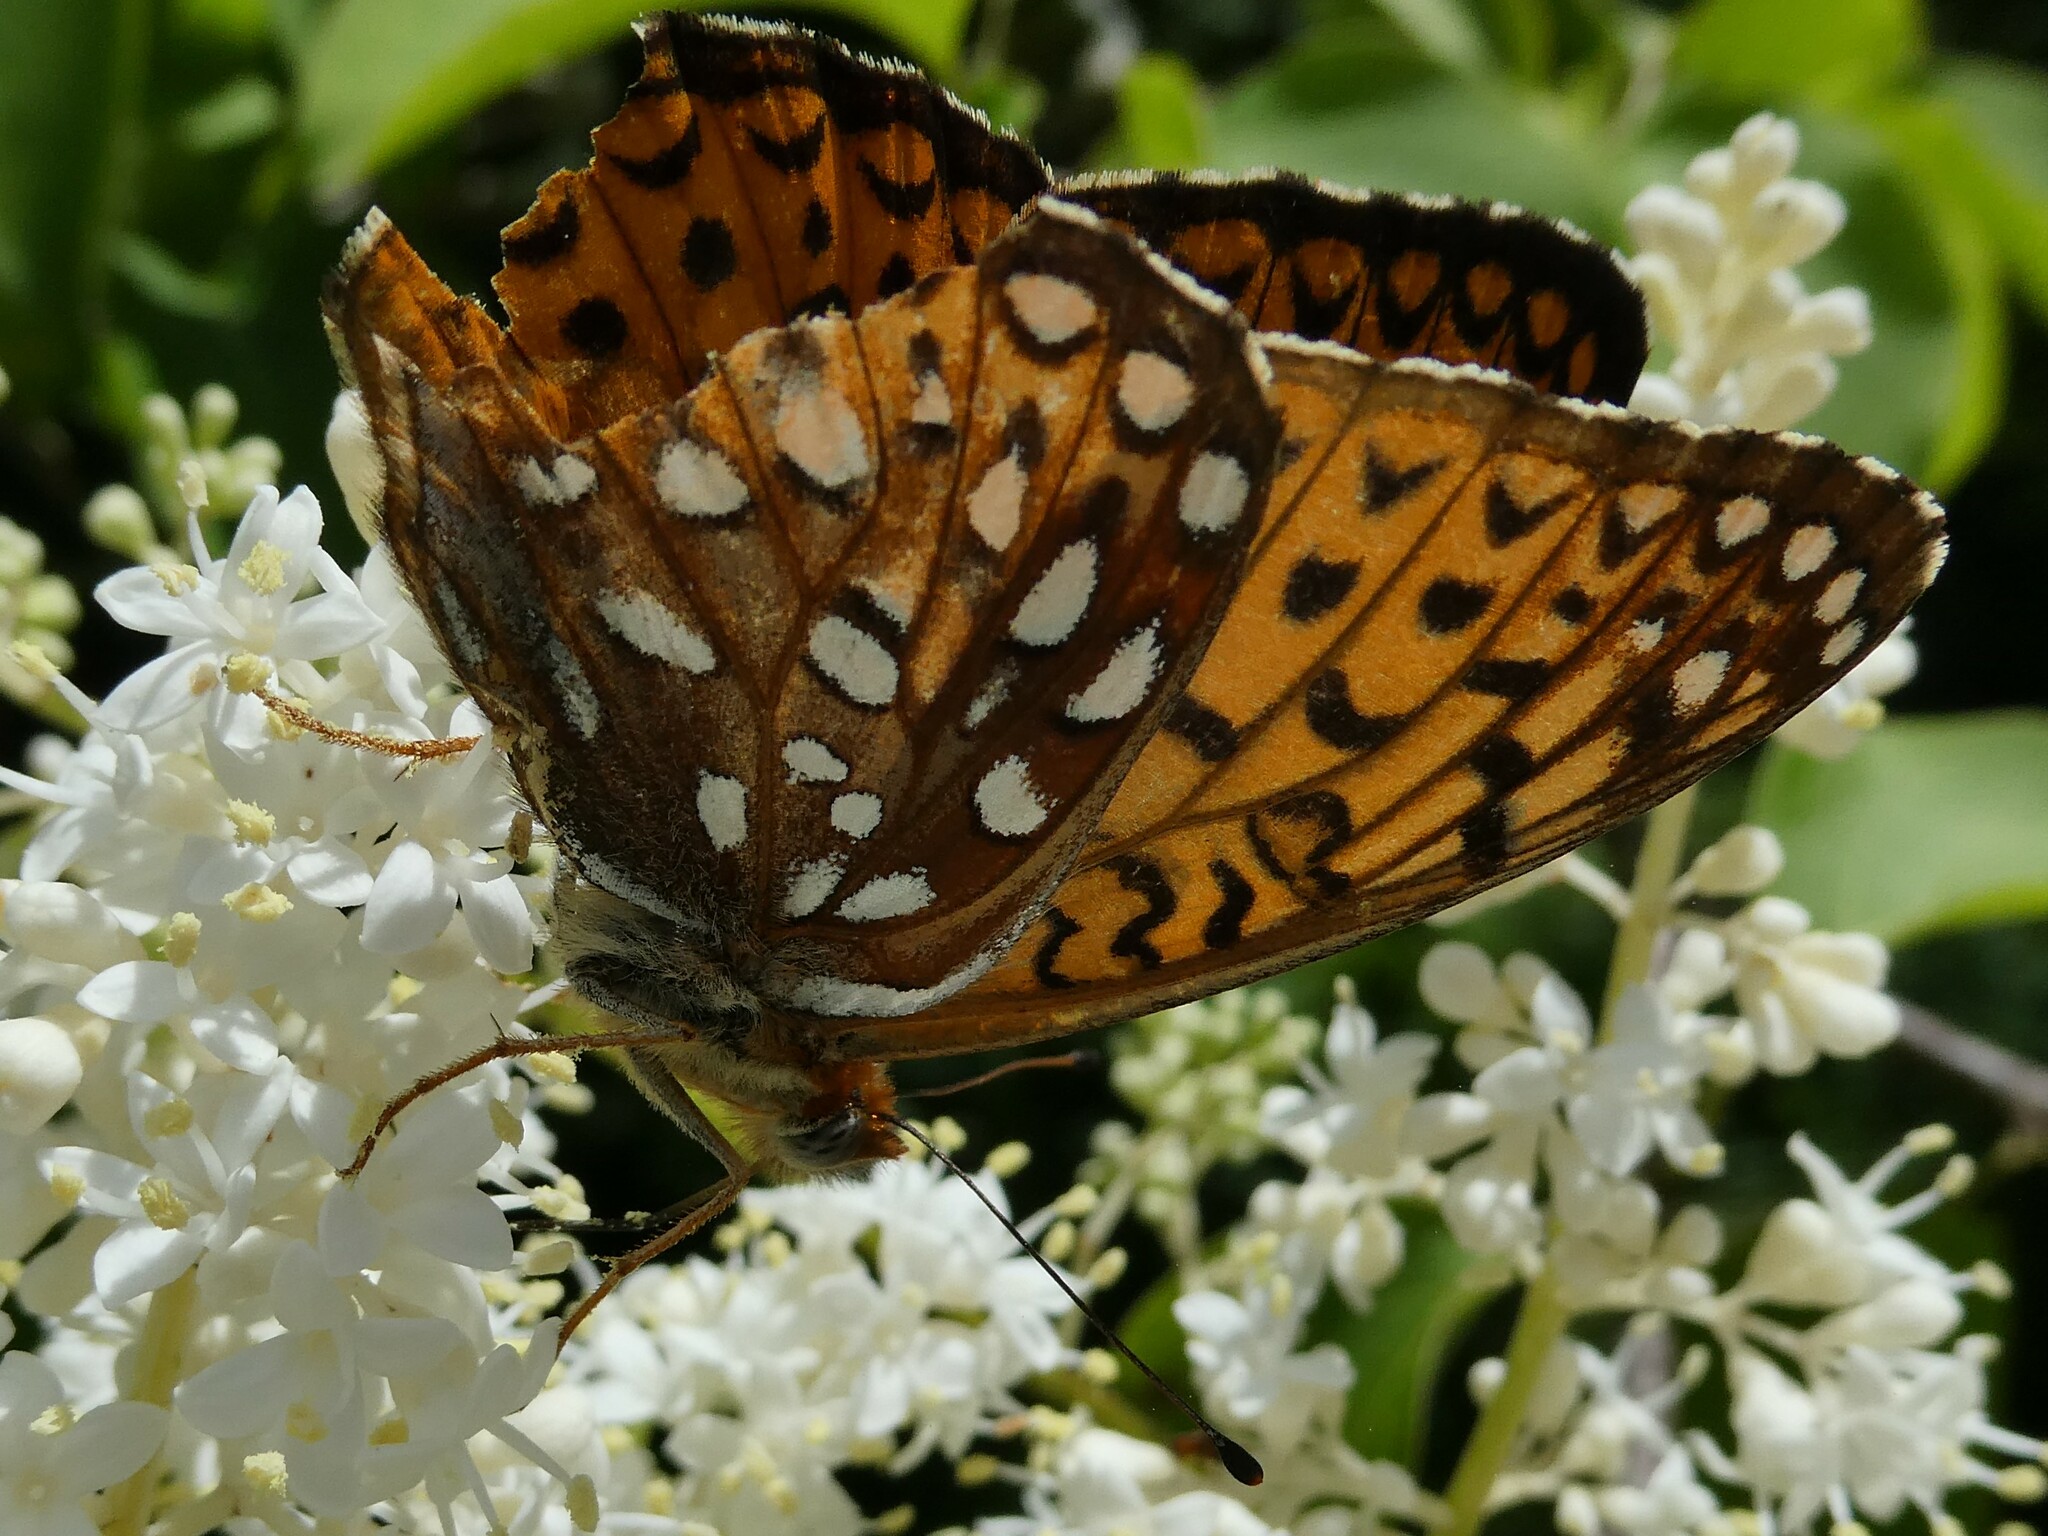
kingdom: Animalia
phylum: Arthropoda
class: Insecta
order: Lepidoptera
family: Nymphalidae
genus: Speyeria
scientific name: Speyeria atlantis
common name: Atlantis fritillary
